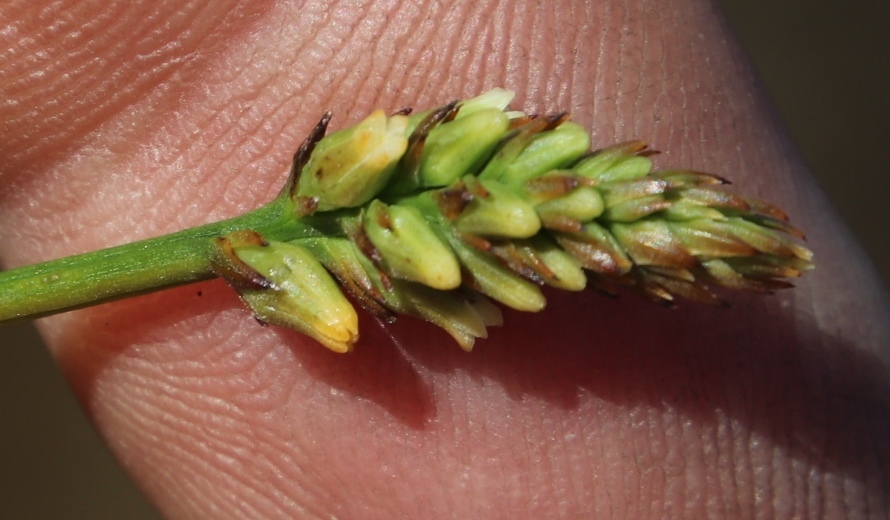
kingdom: Plantae
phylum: Tracheophyta
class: Magnoliopsida
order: Santalales
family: Thesiaceae
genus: Thesium
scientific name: Thesium spicatum
